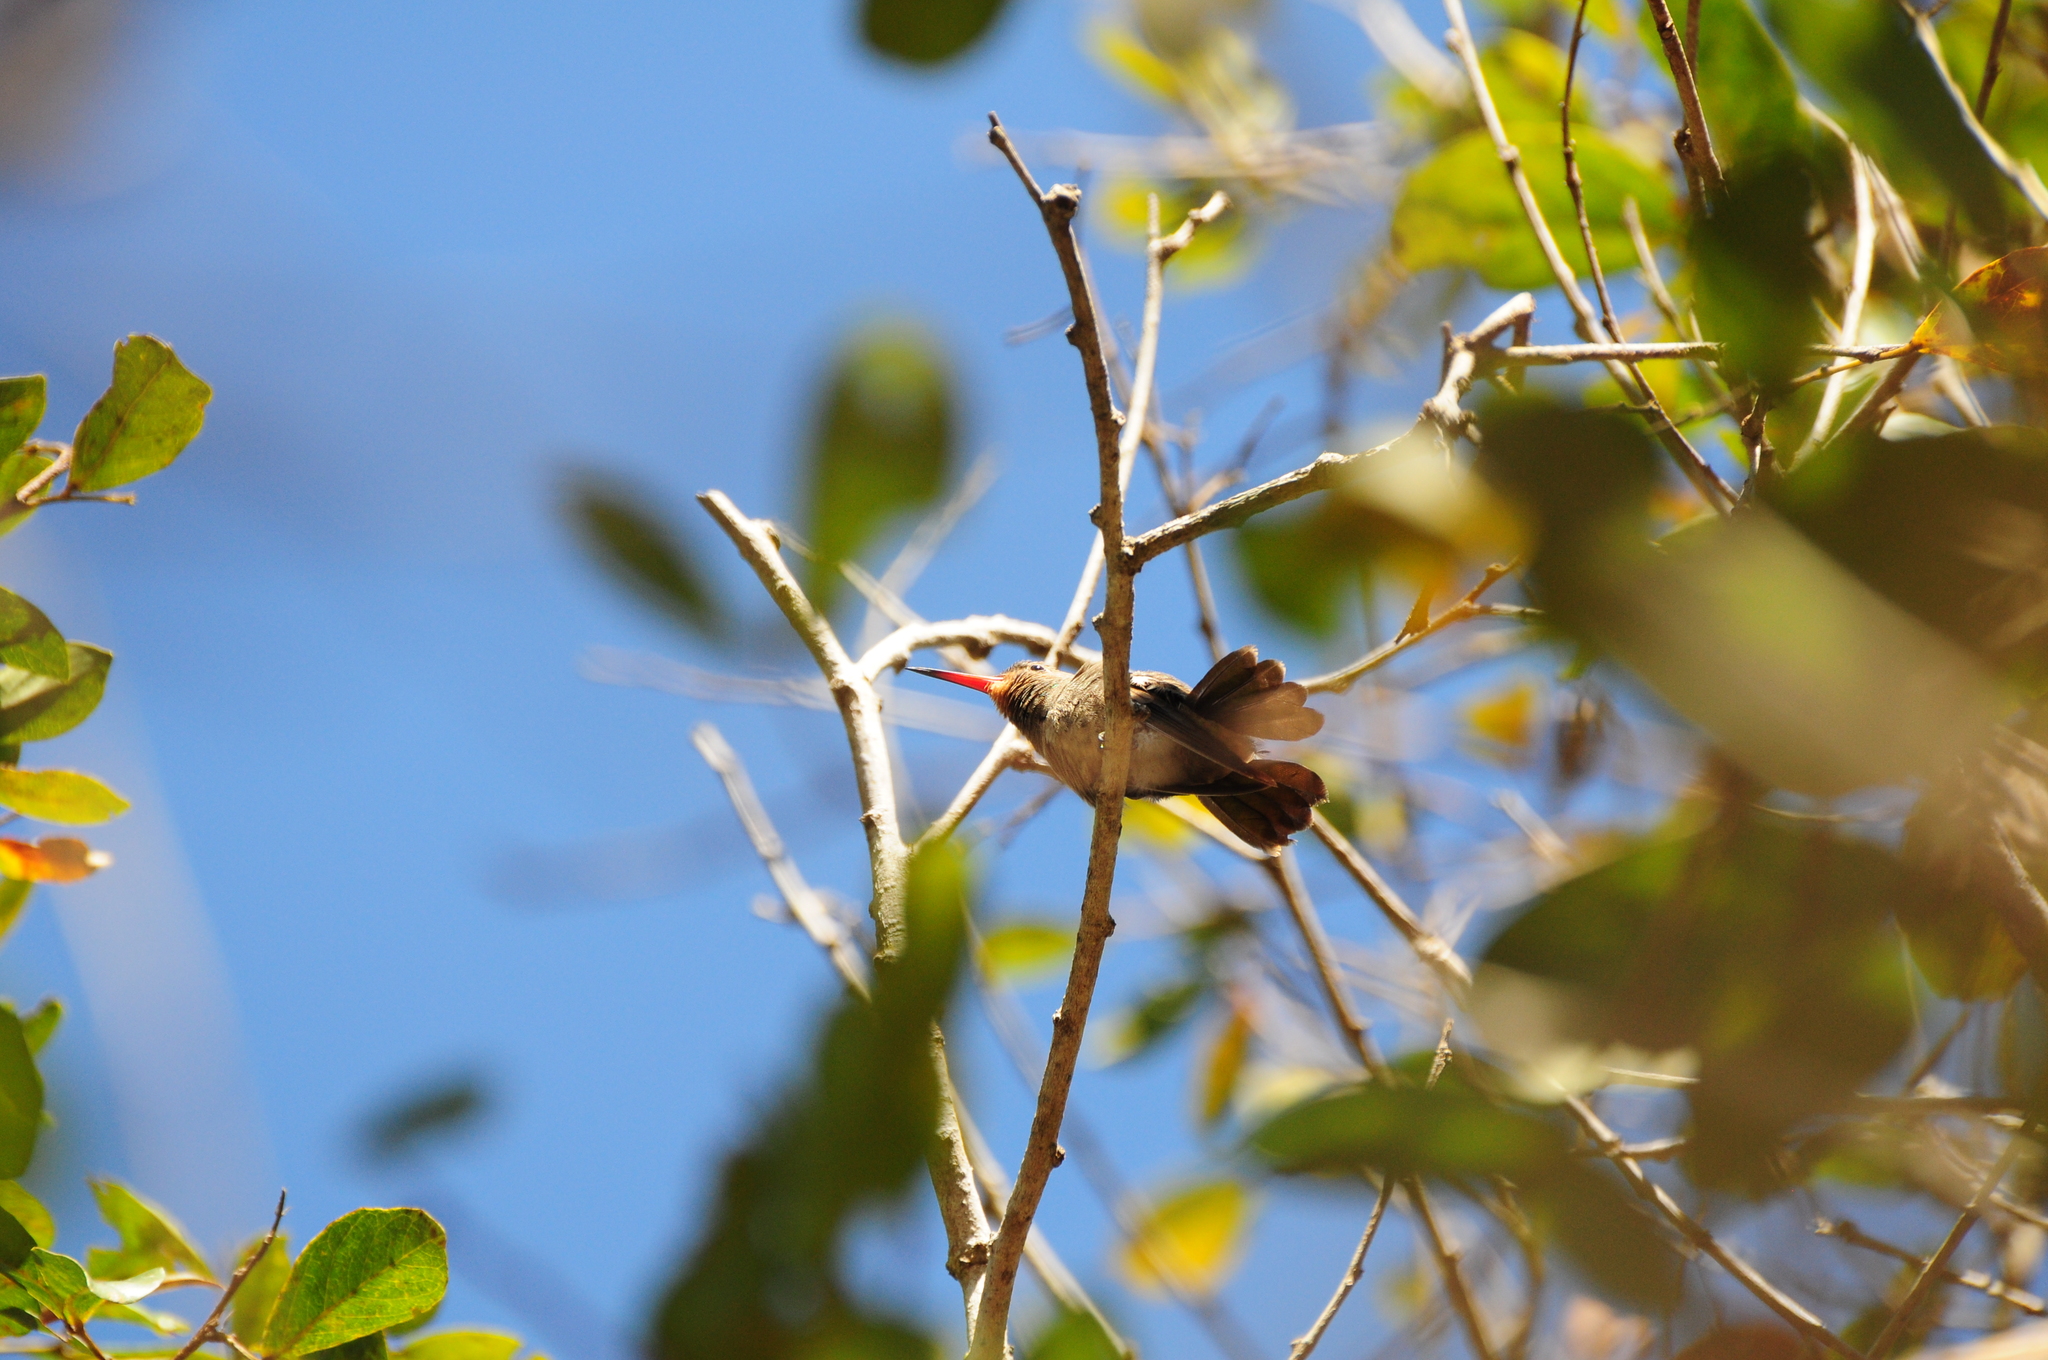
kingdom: Animalia
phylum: Chordata
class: Aves
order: Apodiformes
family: Trochilidae
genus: Hylocharis
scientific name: Hylocharis chrysura
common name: Gilded sapphire
